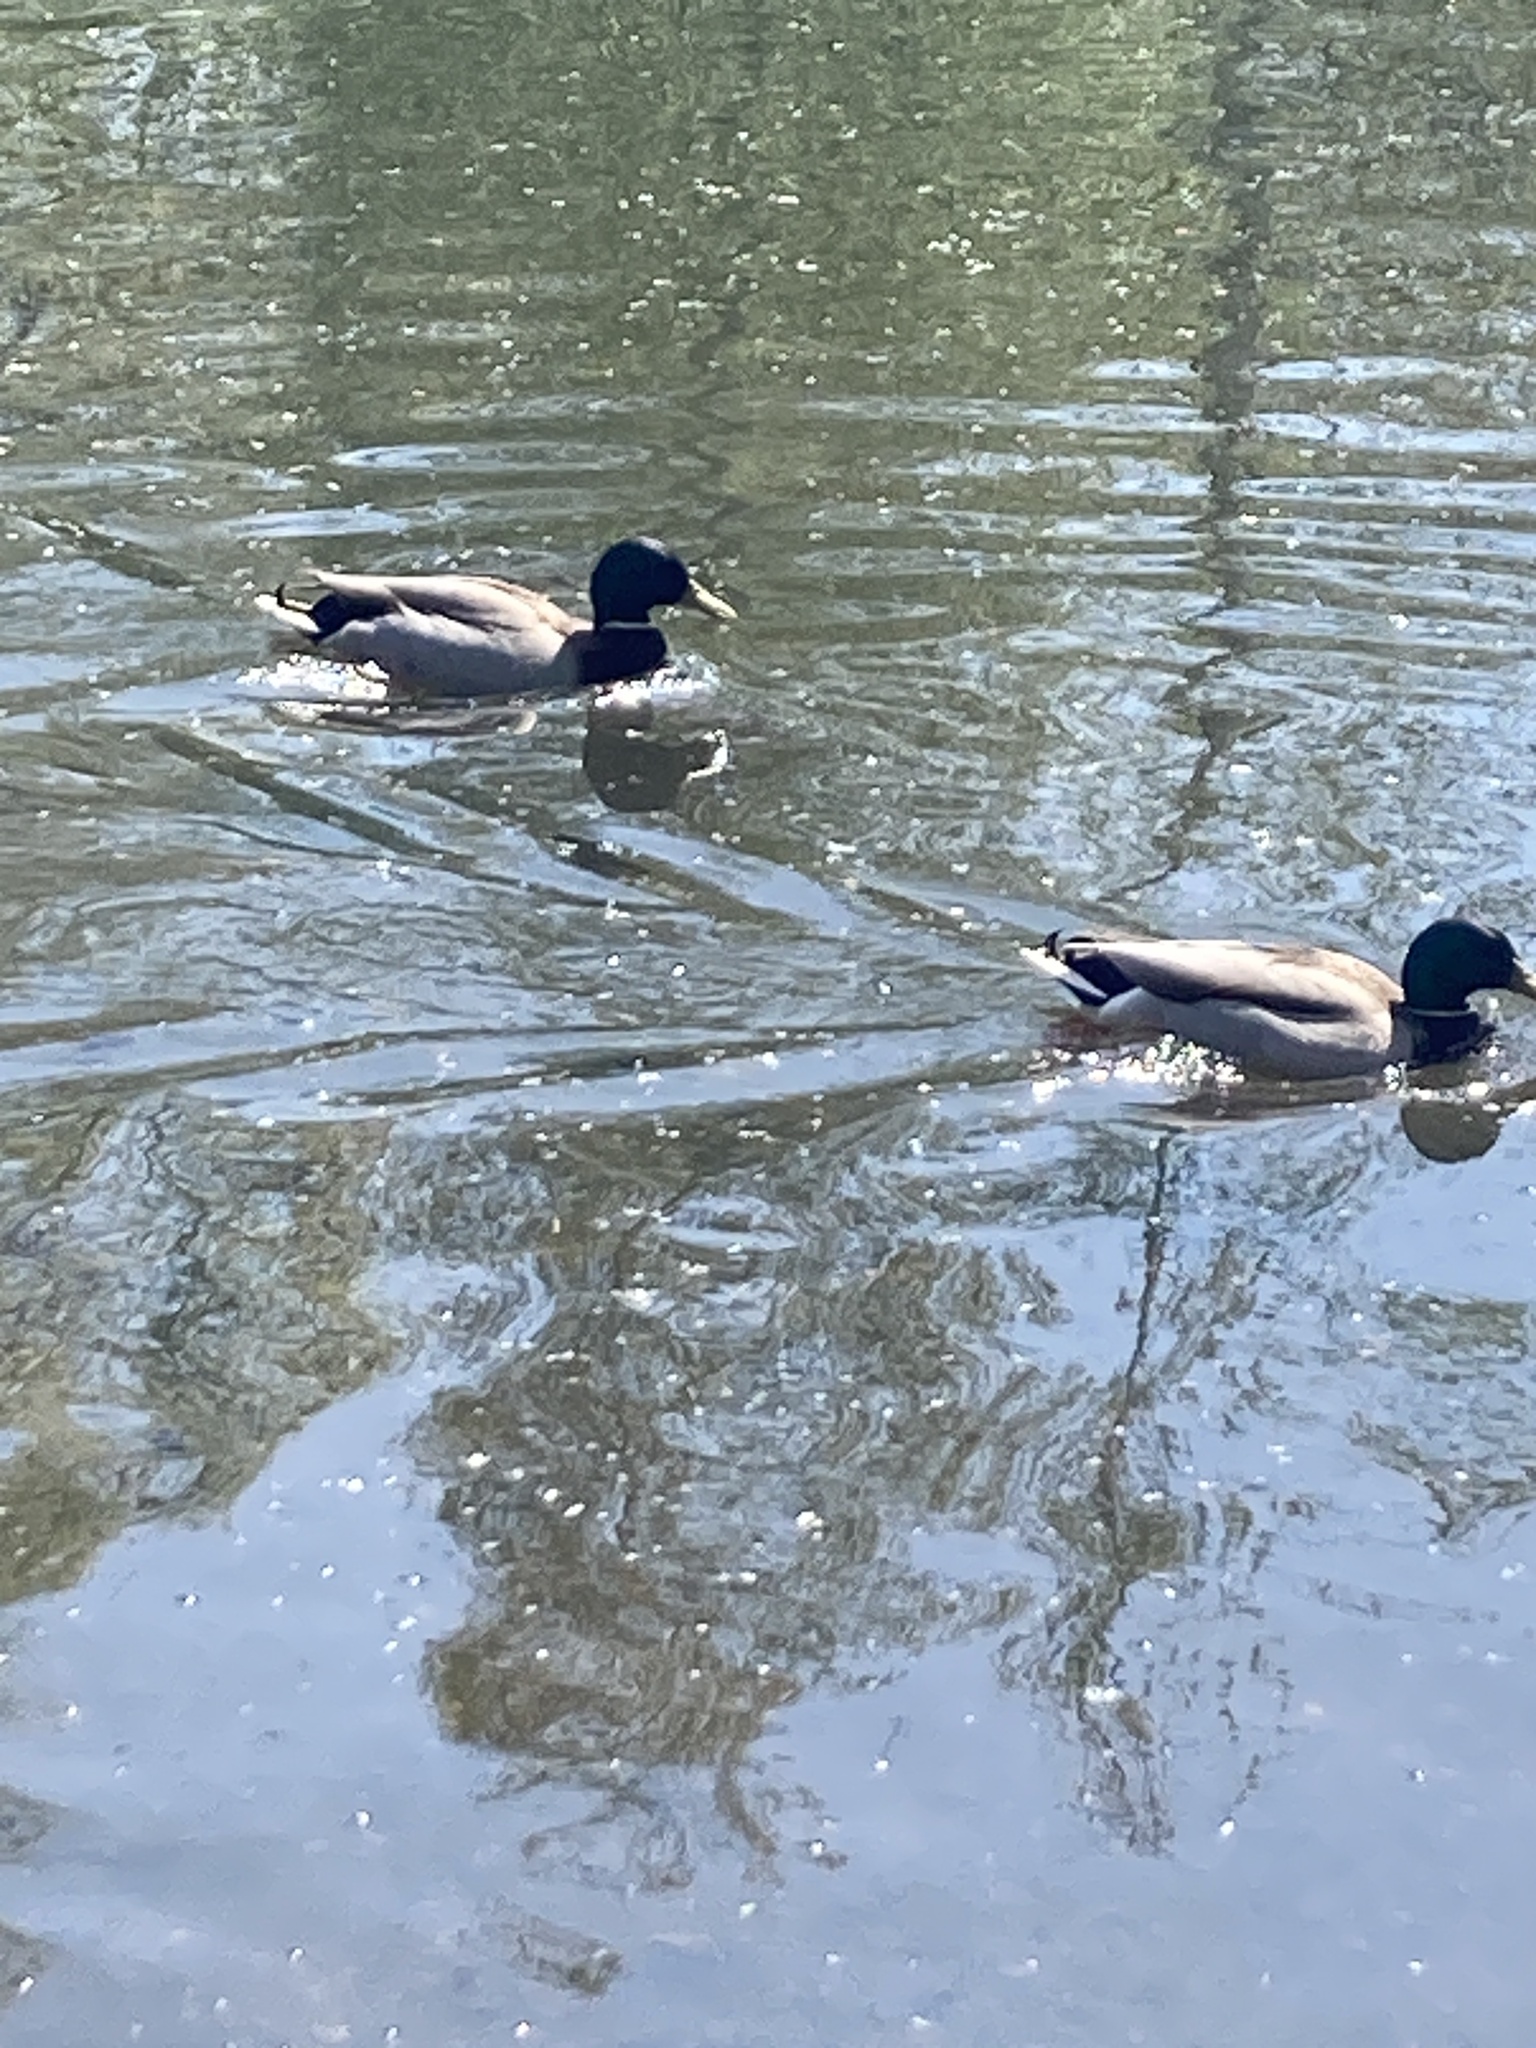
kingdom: Animalia
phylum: Chordata
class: Aves
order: Anseriformes
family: Anatidae
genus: Anas
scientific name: Anas platyrhynchos
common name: Mallard
